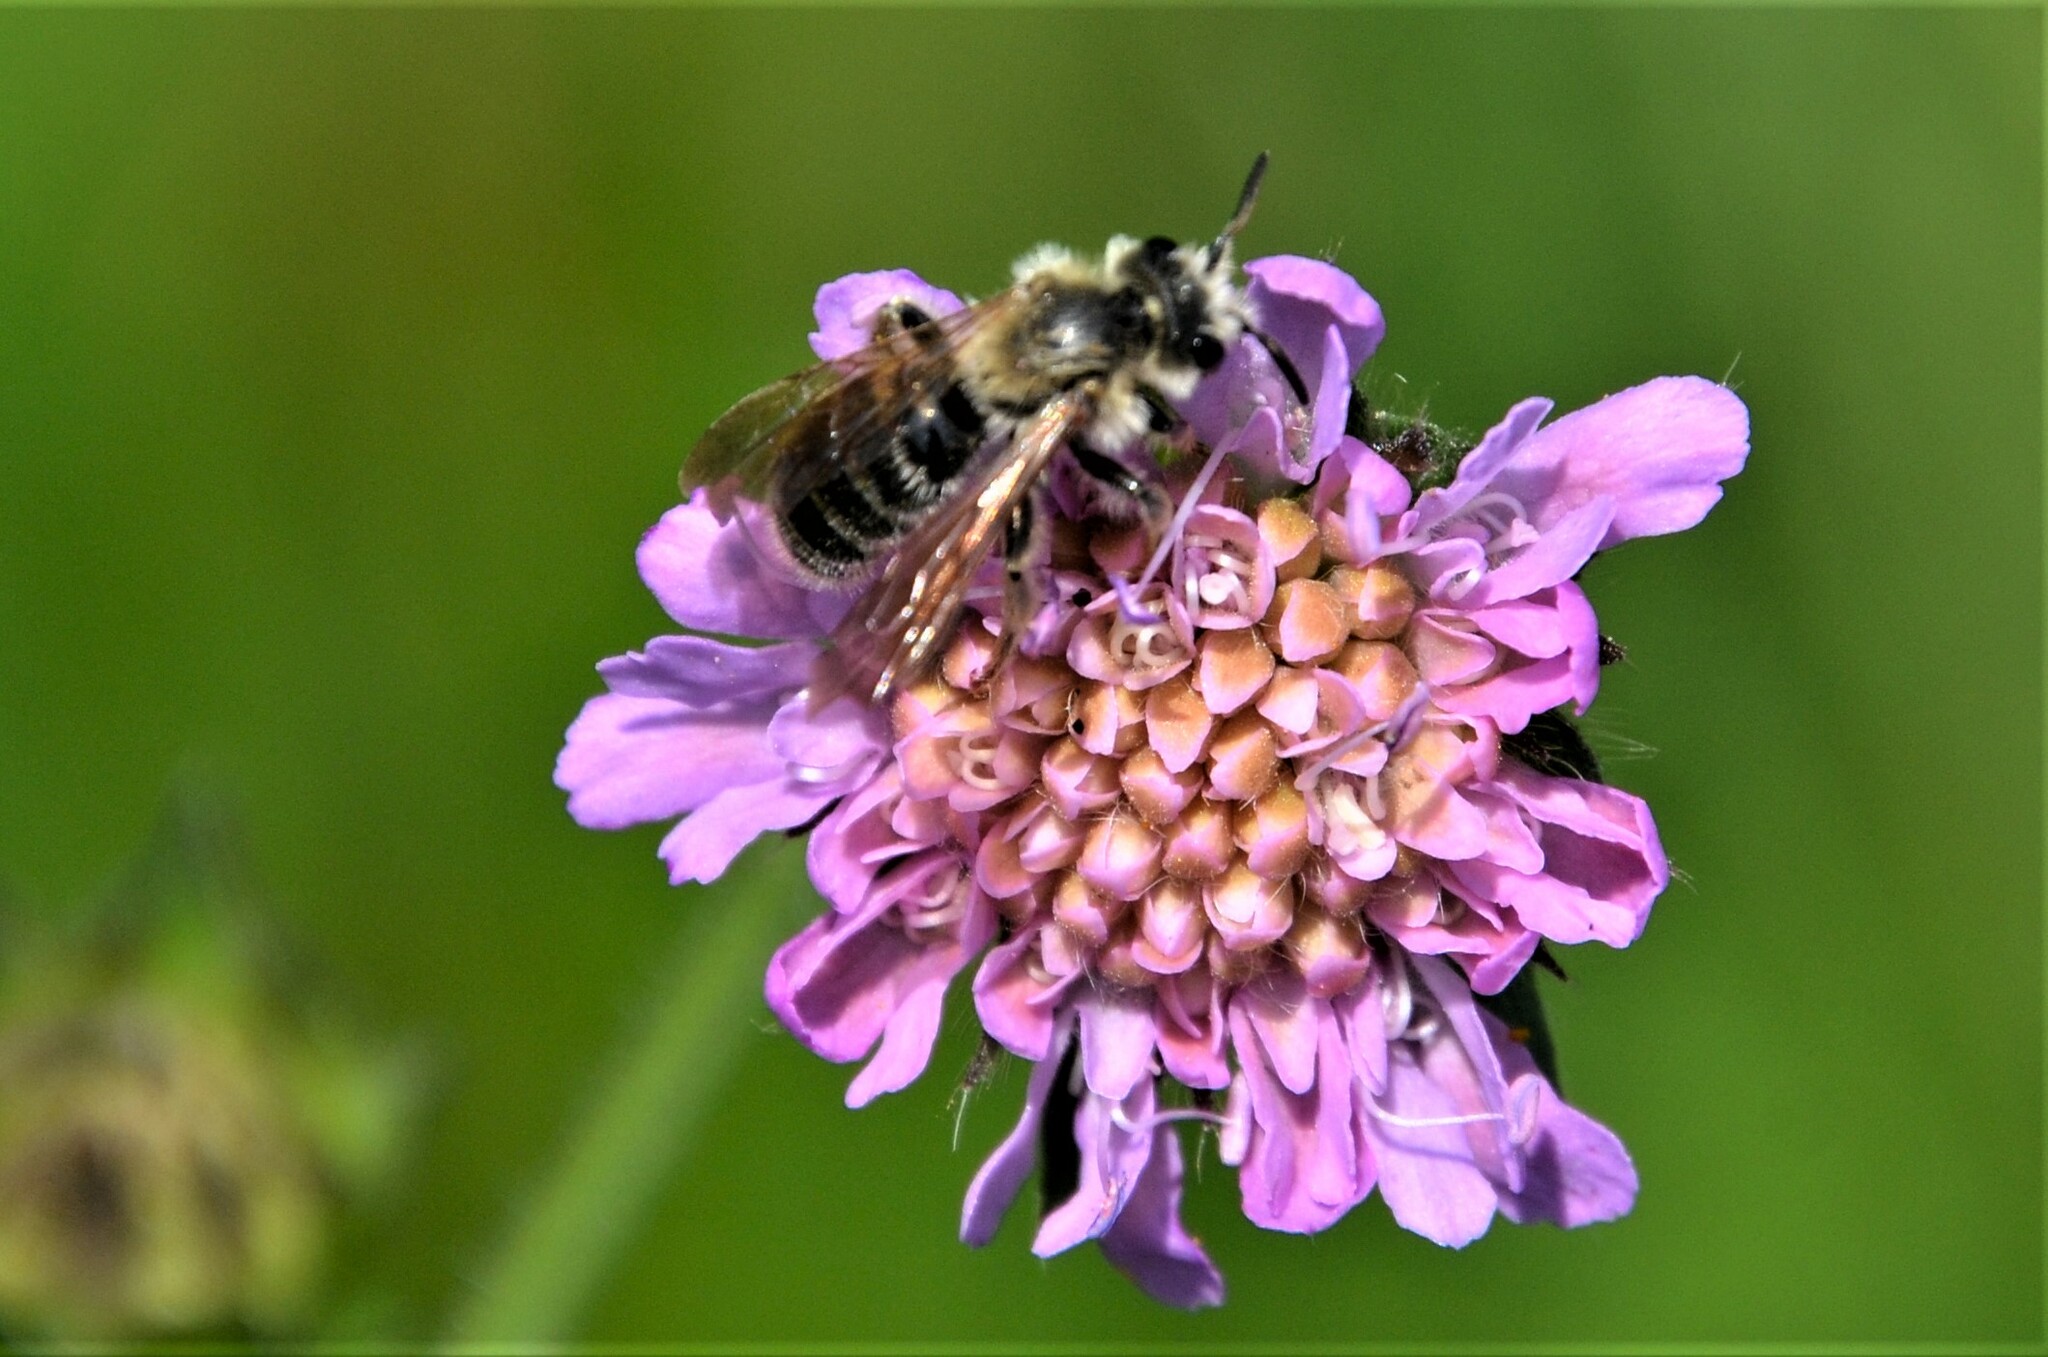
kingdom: Animalia
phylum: Arthropoda
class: Insecta
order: Hymenoptera
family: Andrenidae
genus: Andrena
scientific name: Andrena hattorfiana
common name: Large scabious mining bee
